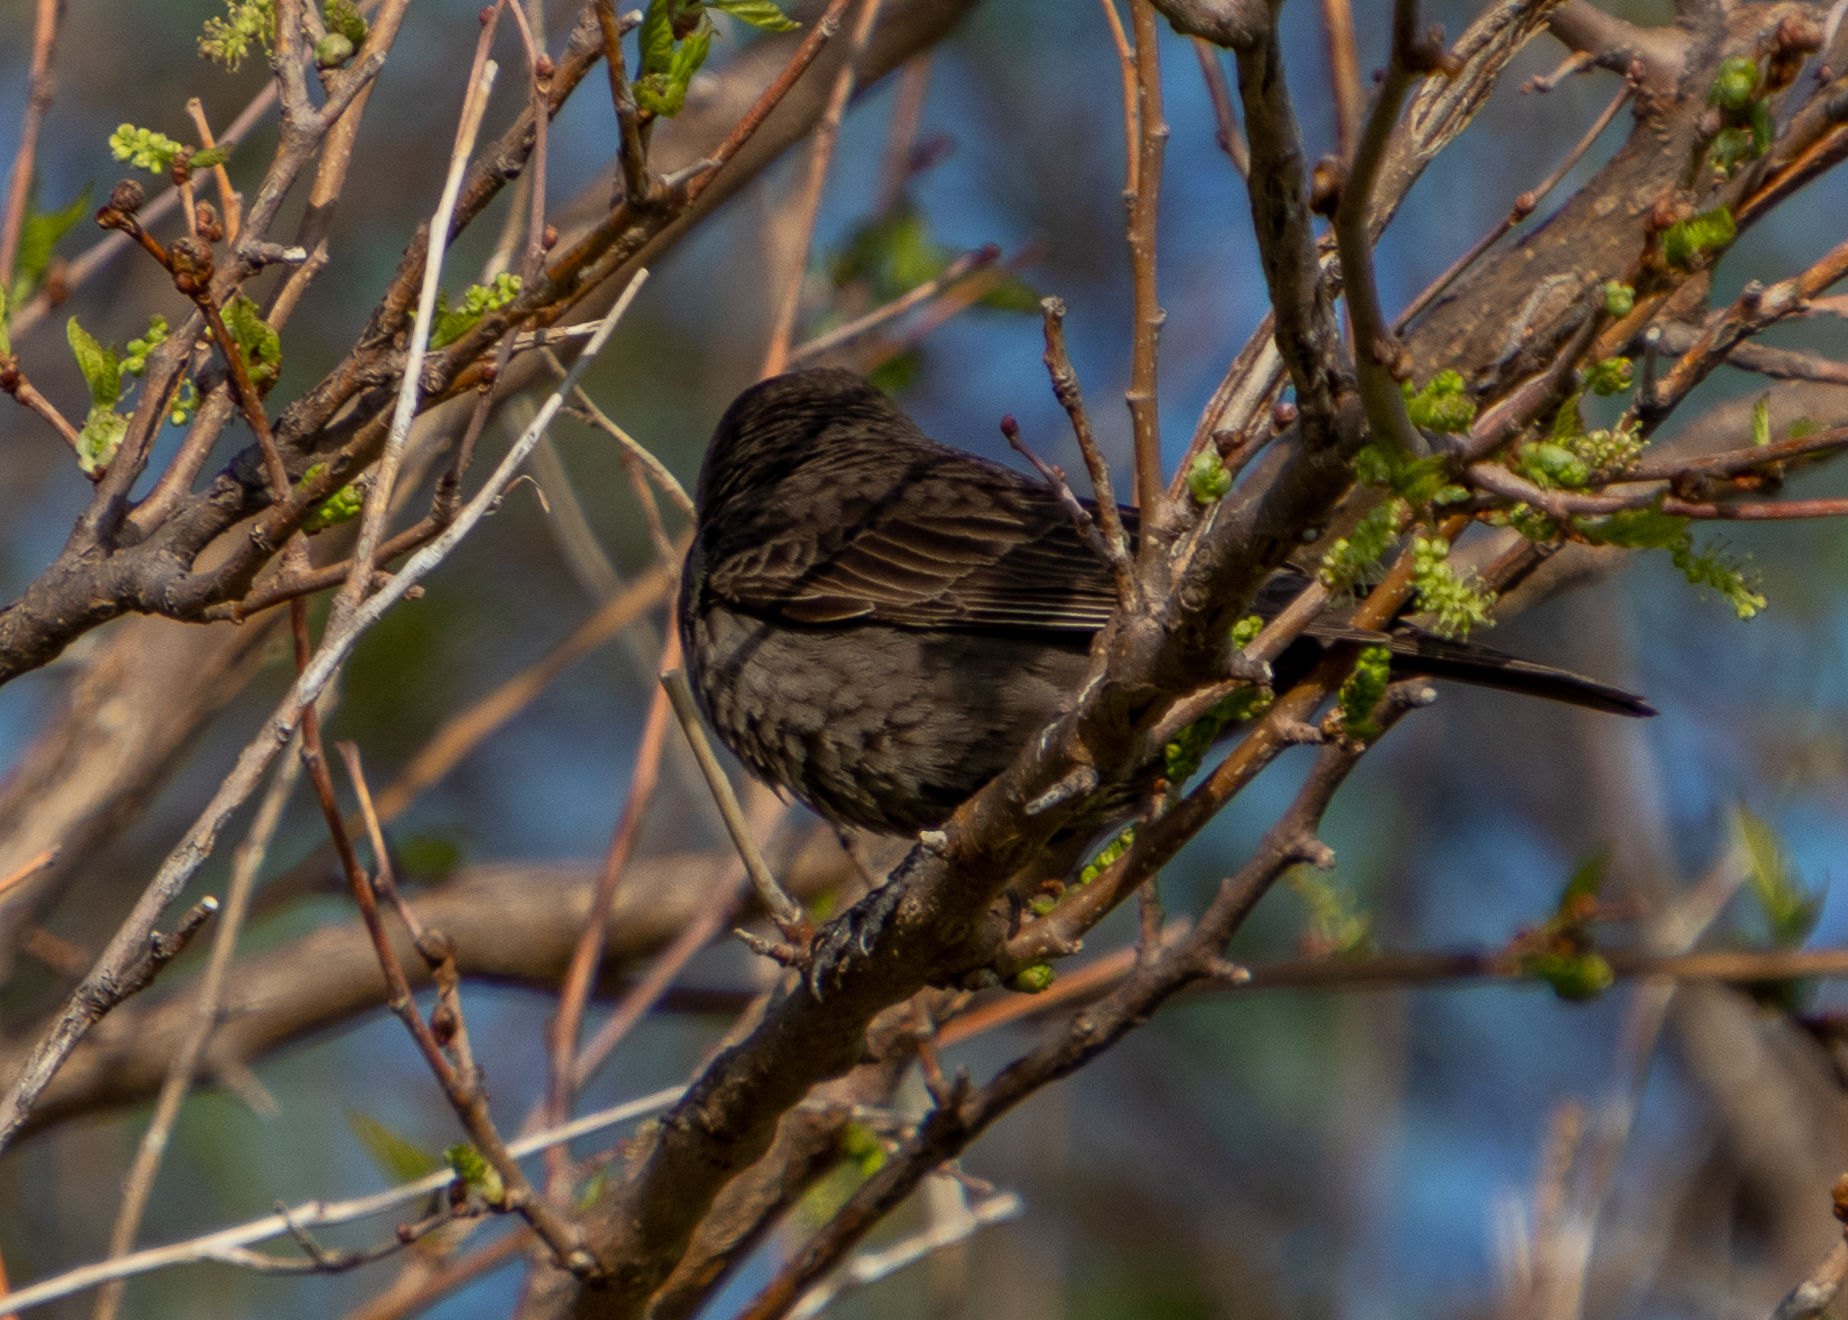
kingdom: Animalia
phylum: Chordata
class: Aves
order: Passeriformes
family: Icteridae
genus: Molothrus
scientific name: Molothrus ater
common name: Brown-headed cowbird
